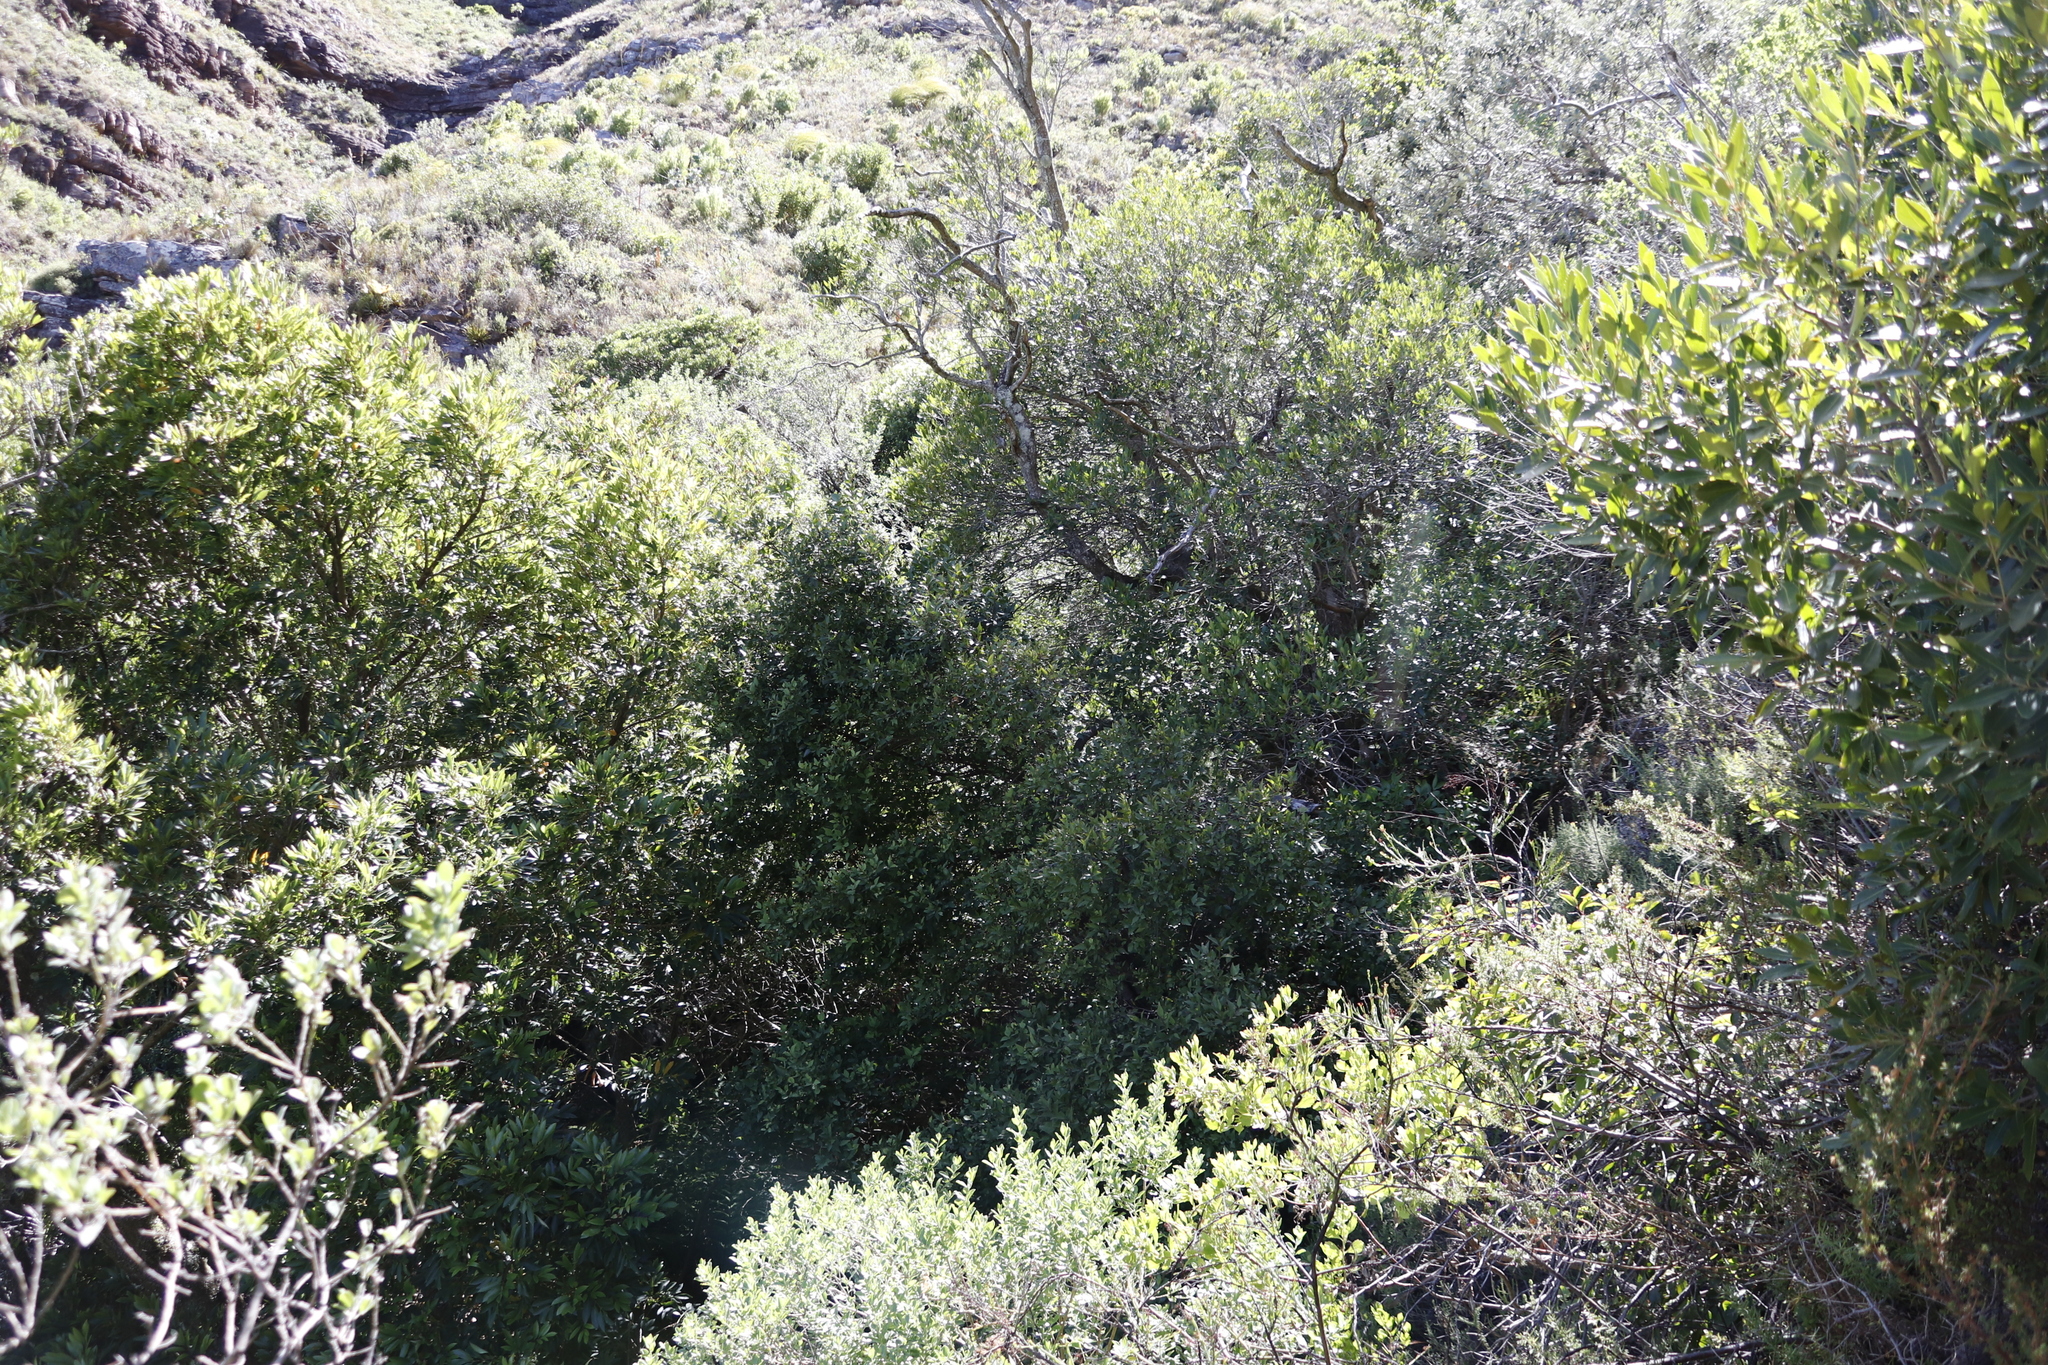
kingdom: Plantae
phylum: Tracheophyta
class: Magnoliopsida
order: Celastrales
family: Celastraceae
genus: Gymnosporia
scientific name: Gymnosporia acuminata
